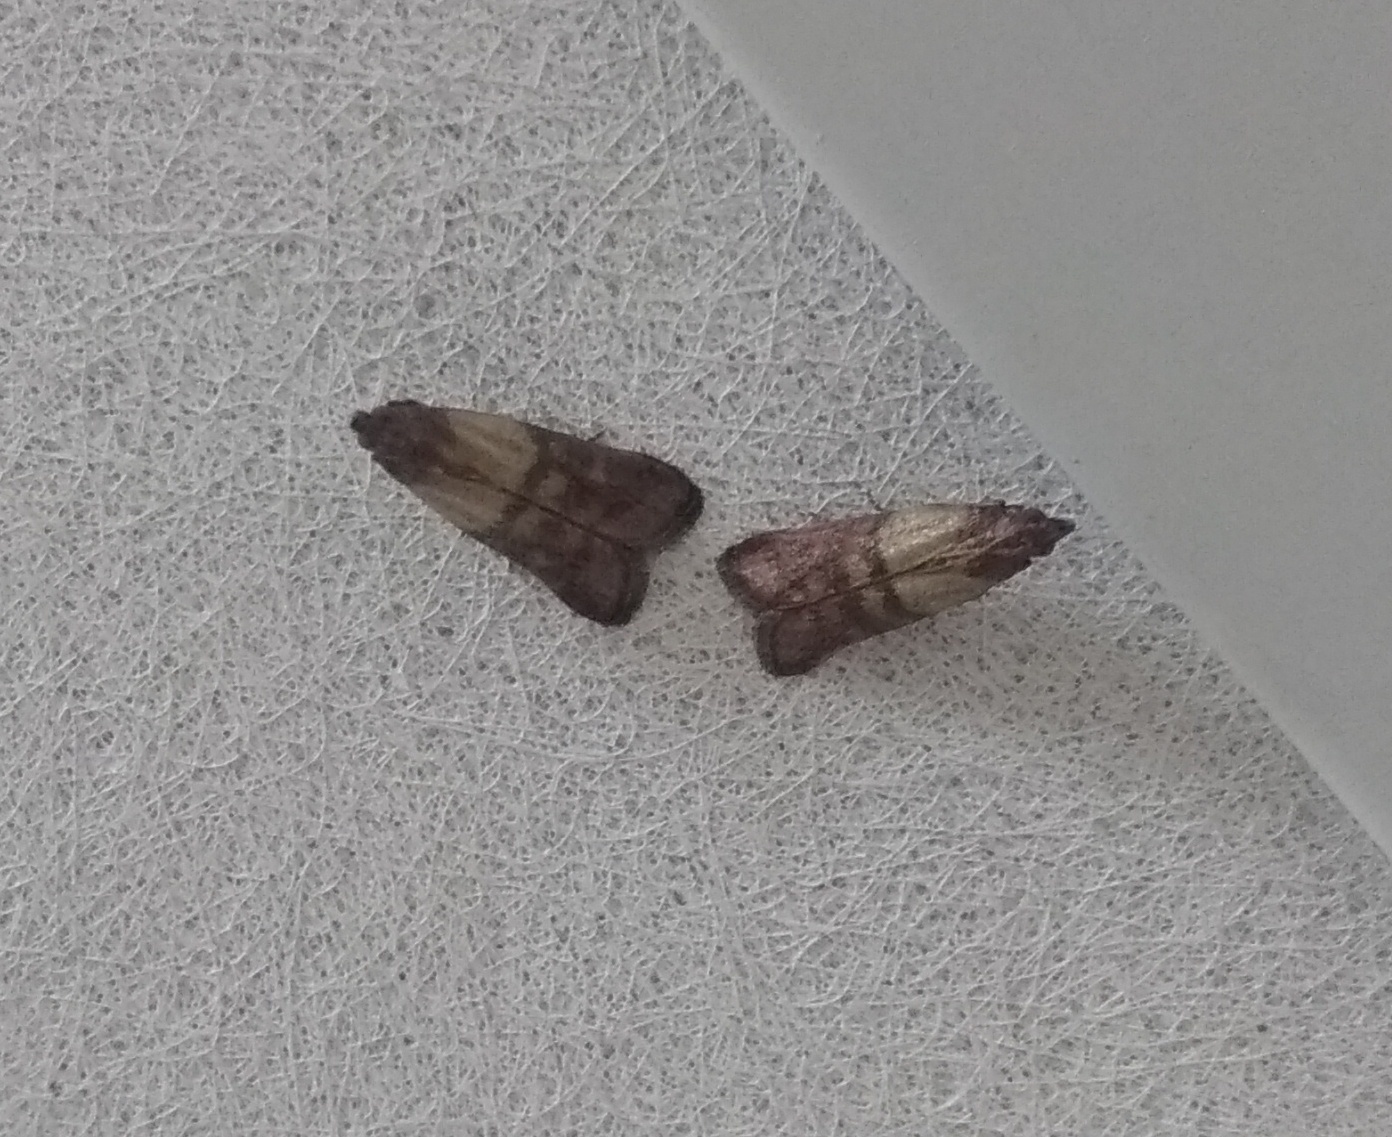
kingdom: Animalia
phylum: Arthropoda
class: Insecta
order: Lepidoptera
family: Pyralidae
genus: Plodia
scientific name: Plodia interpunctella
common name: Indian meal moth
